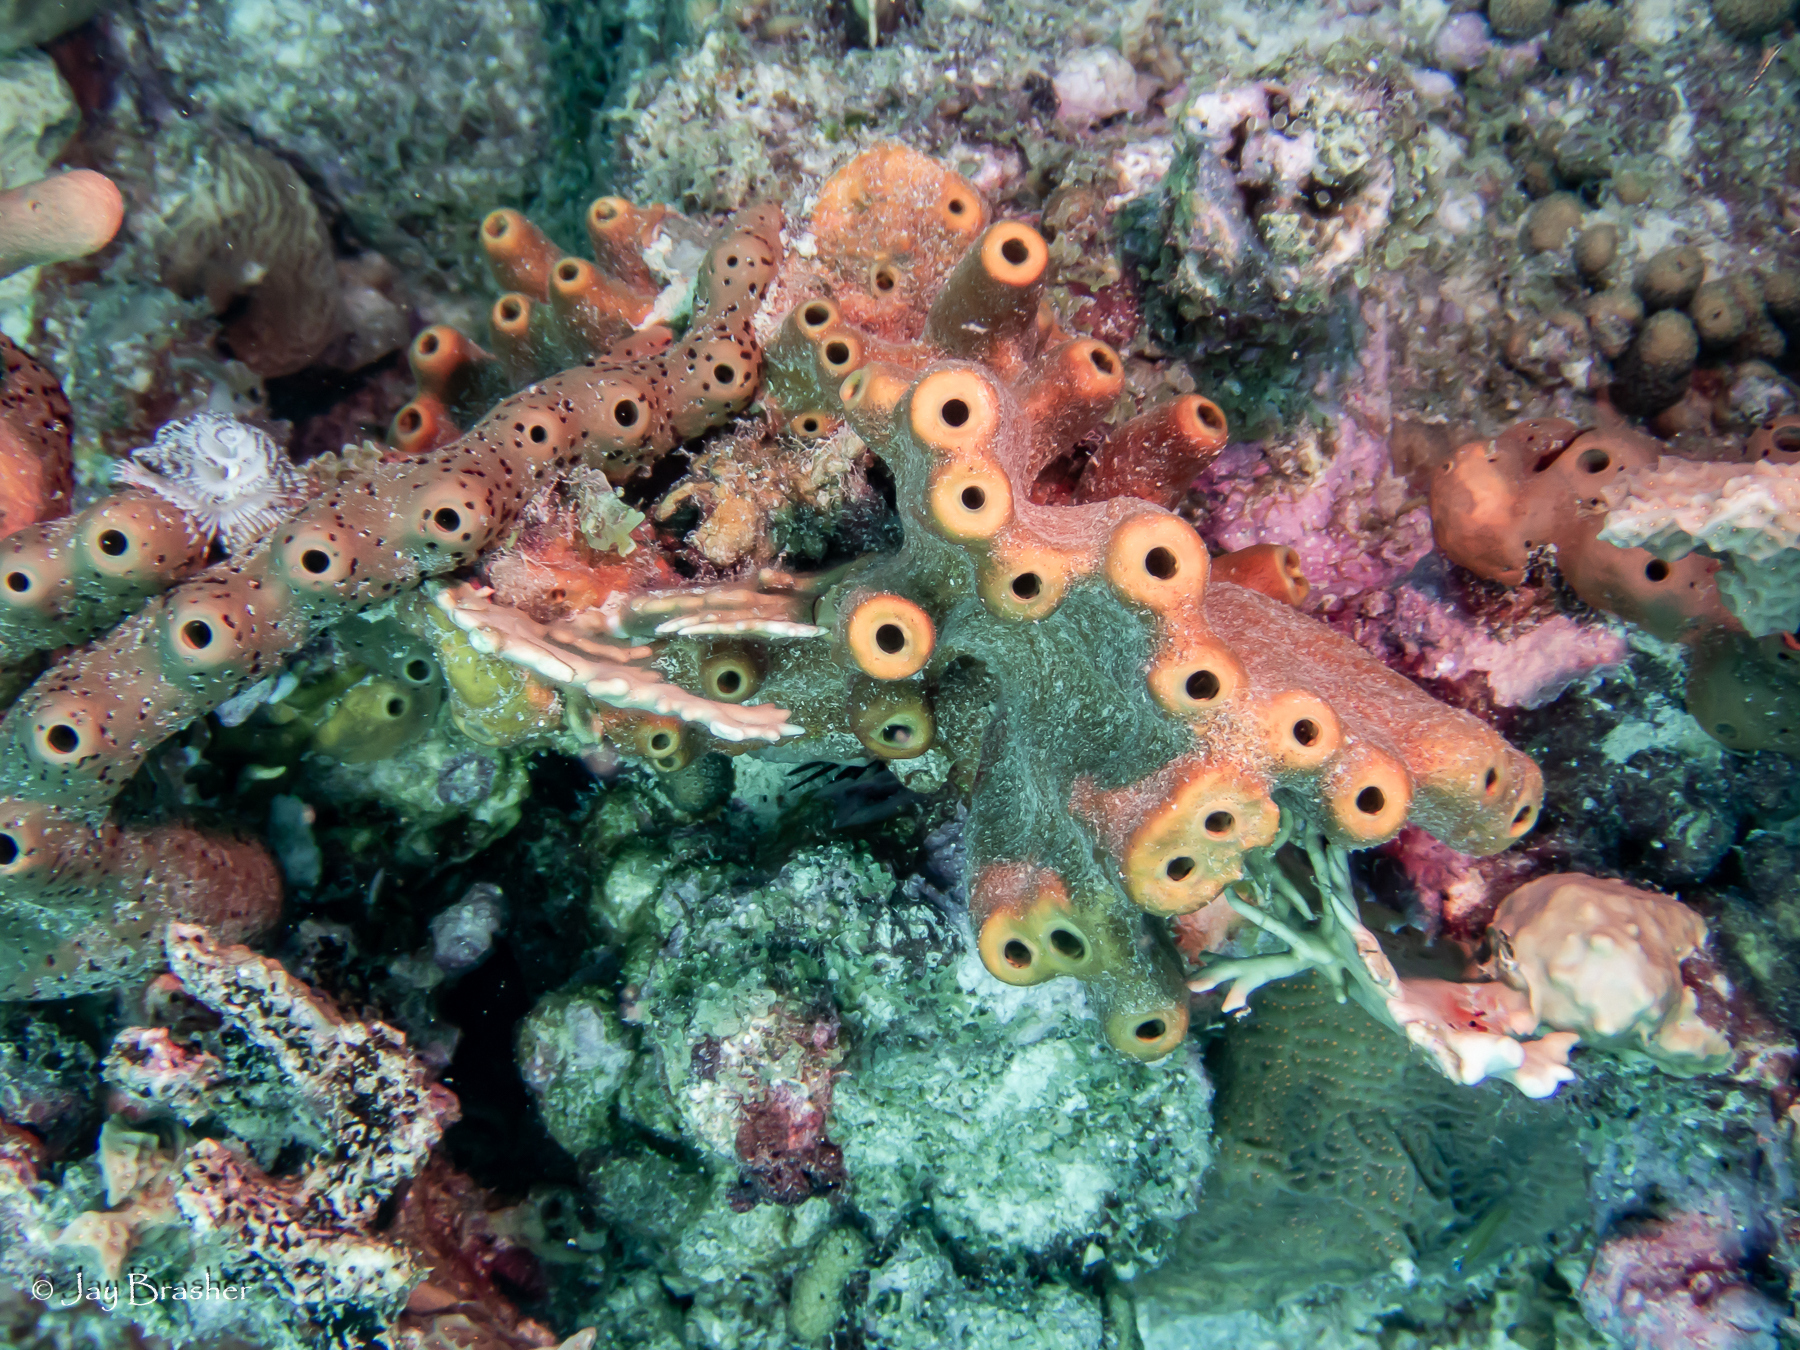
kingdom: Animalia
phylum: Porifera
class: Demospongiae
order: Agelasida
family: Agelasidae
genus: Agelas
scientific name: Agelas conifera
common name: Brown tube sponge
